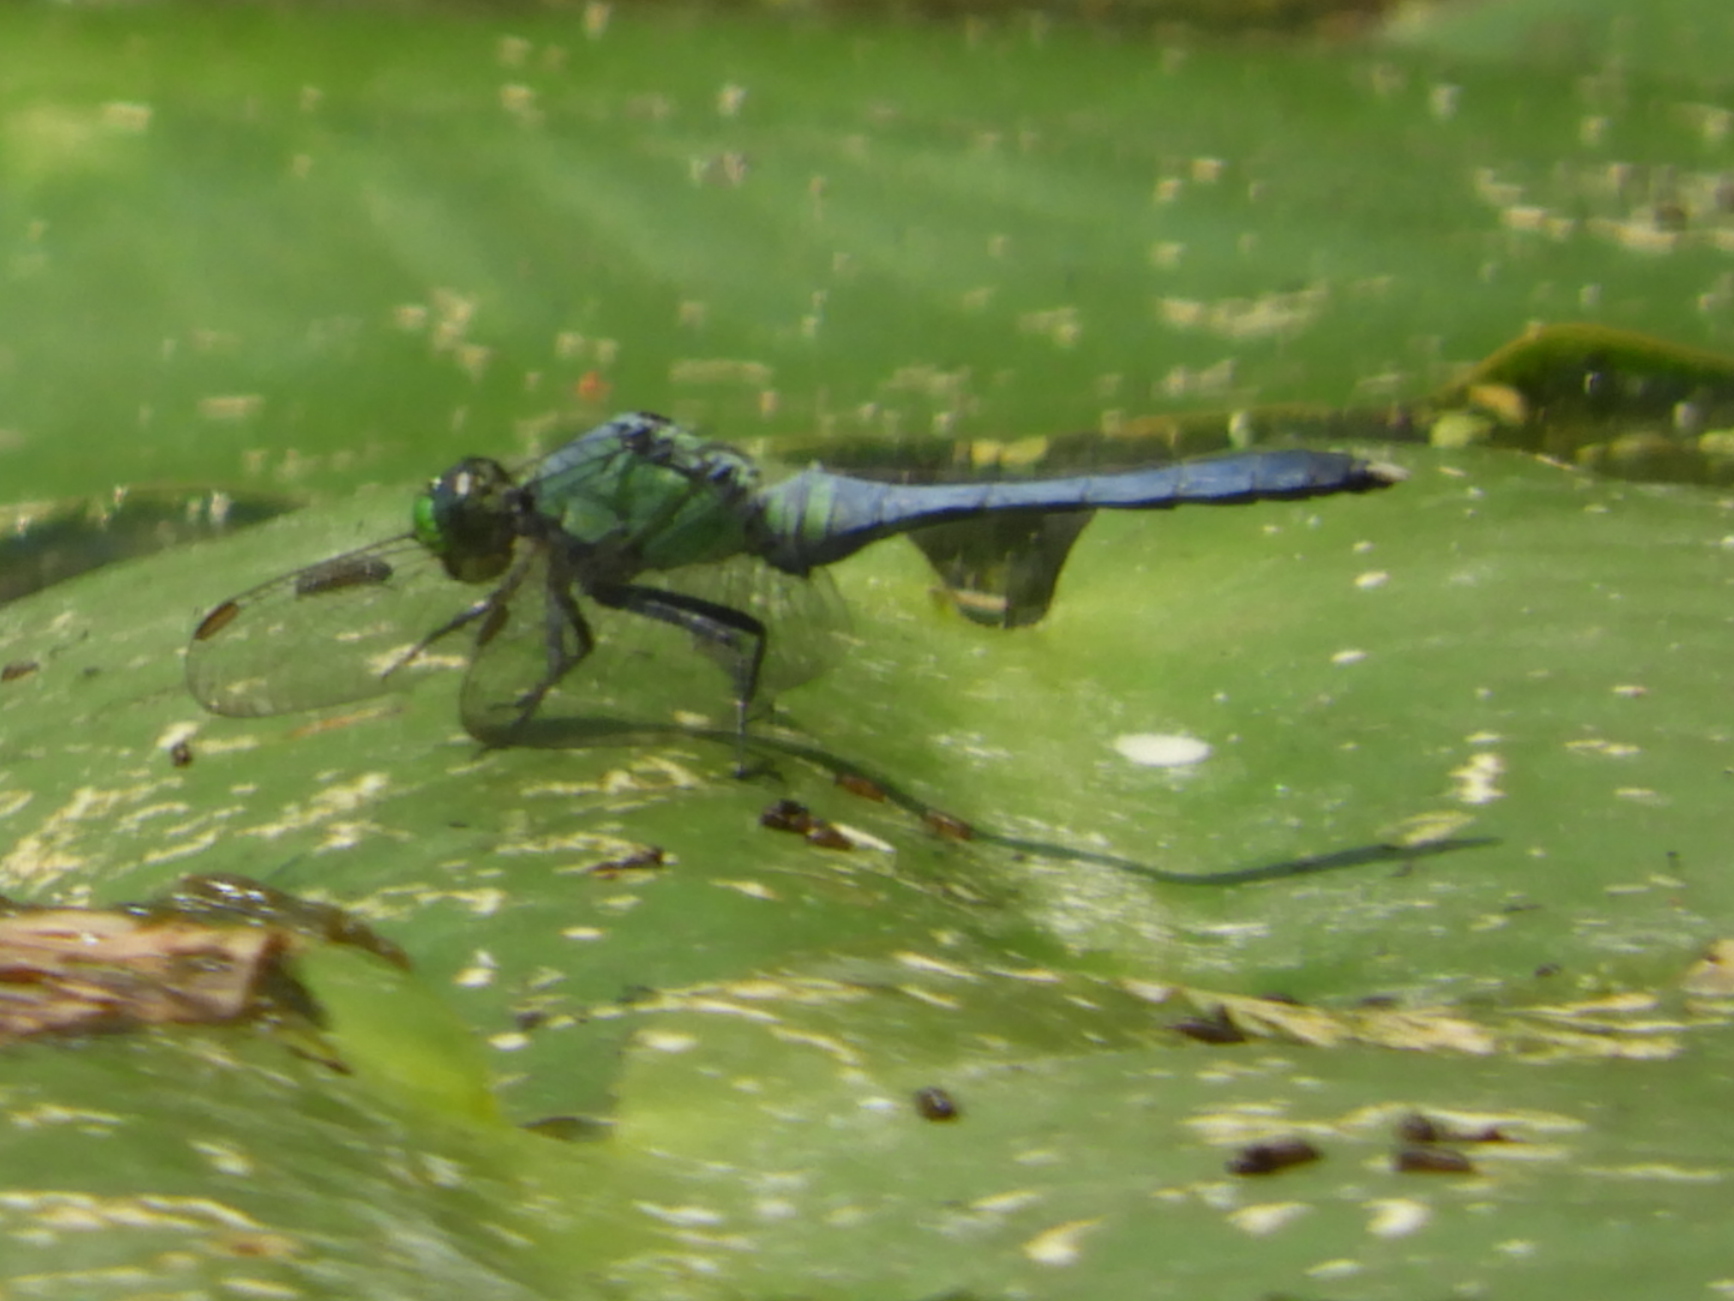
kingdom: Animalia
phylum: Arthropoda
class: Insecta
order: Odonata
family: Libellulidae
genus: Erythemis
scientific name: Erythemis simplicicollis
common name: Eastern pondhawk
